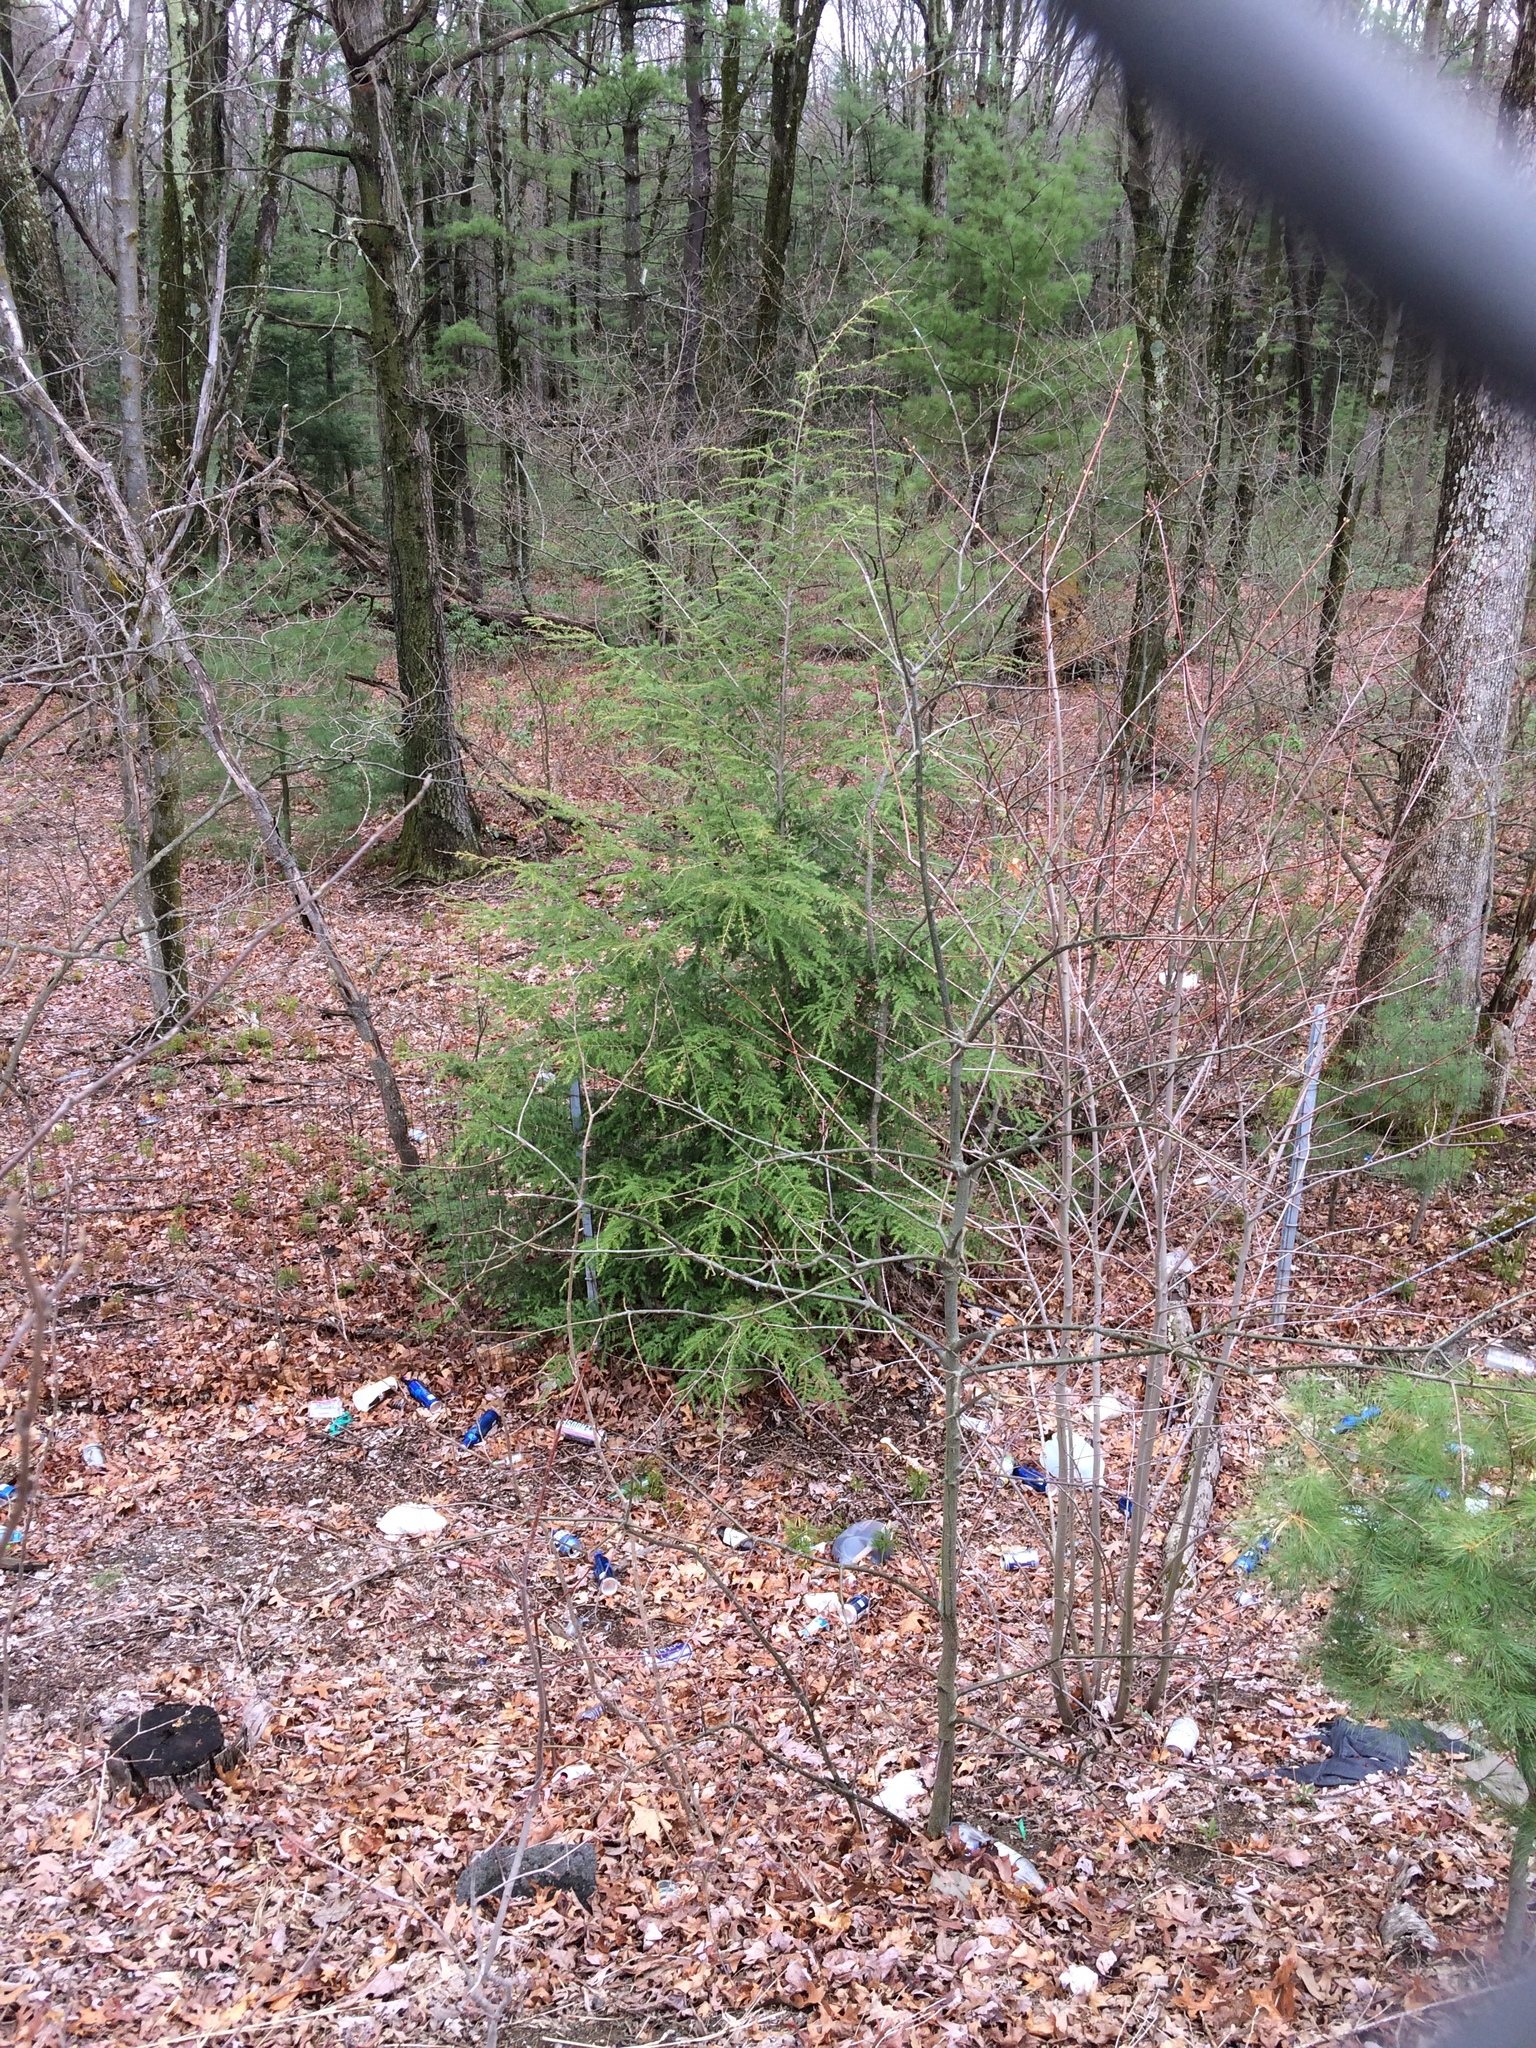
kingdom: Plantae
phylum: Tracheophyta
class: Pinopsida
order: Pinales
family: Pinaceae
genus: Tsuga
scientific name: Tsuga canadensis
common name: Eastern hemlock
